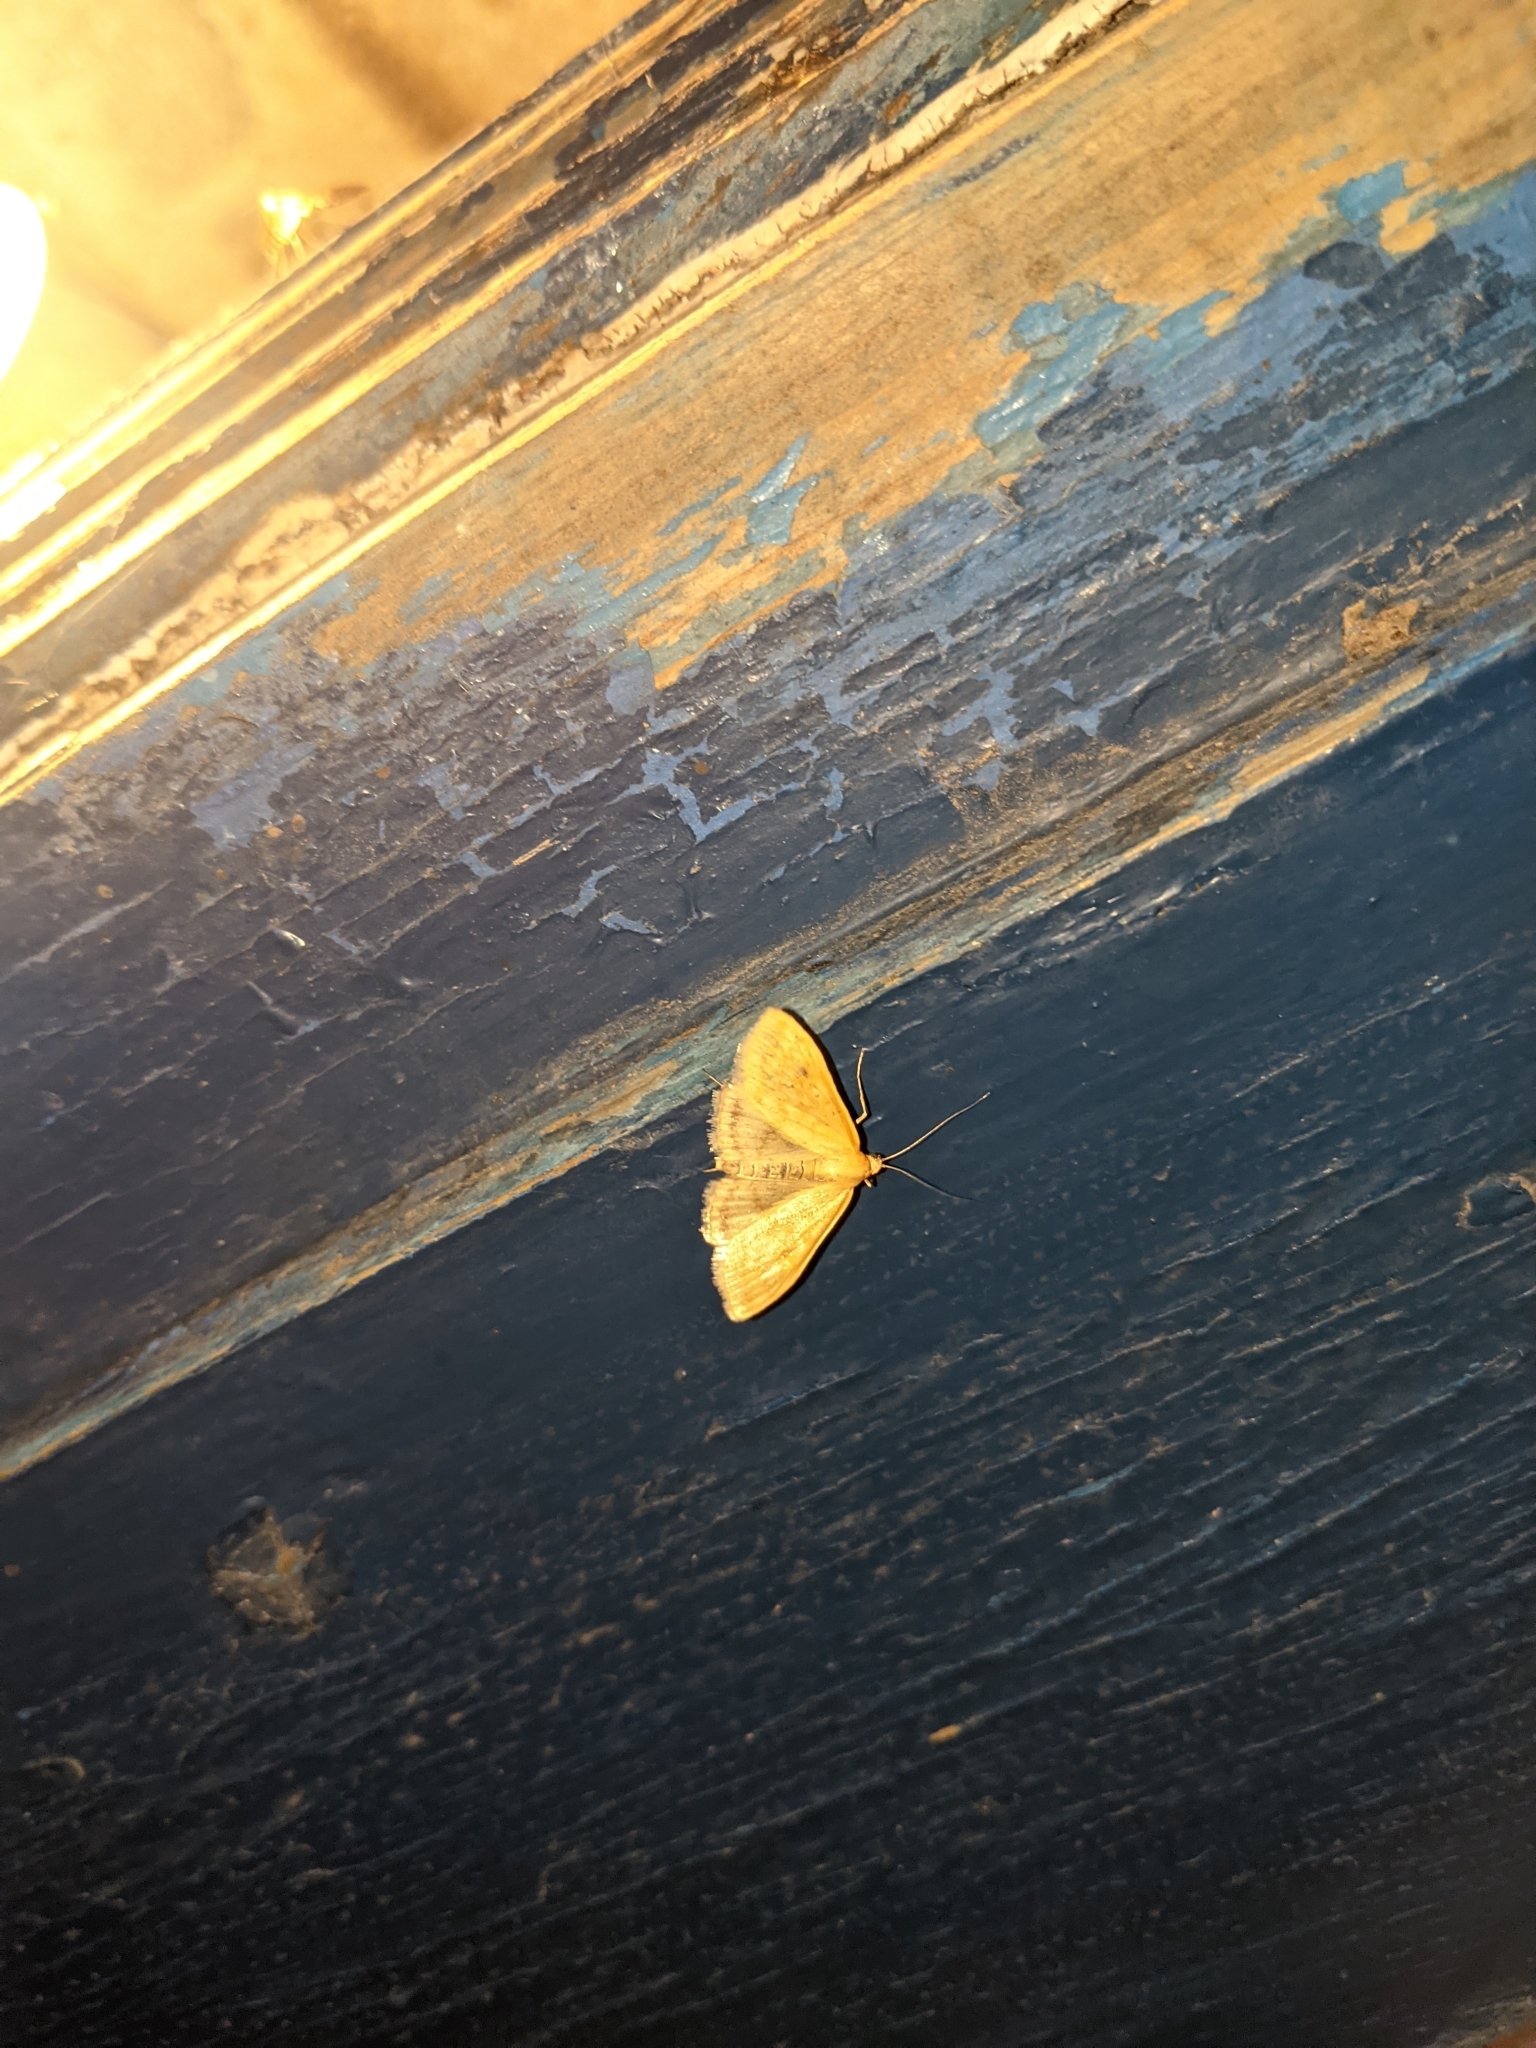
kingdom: Animalia
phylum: Arthropoda
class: Insecta
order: Lepidoptera
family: Crambidae
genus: Sitochroa
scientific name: Sitochroa verticalis
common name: Lesser pearl
